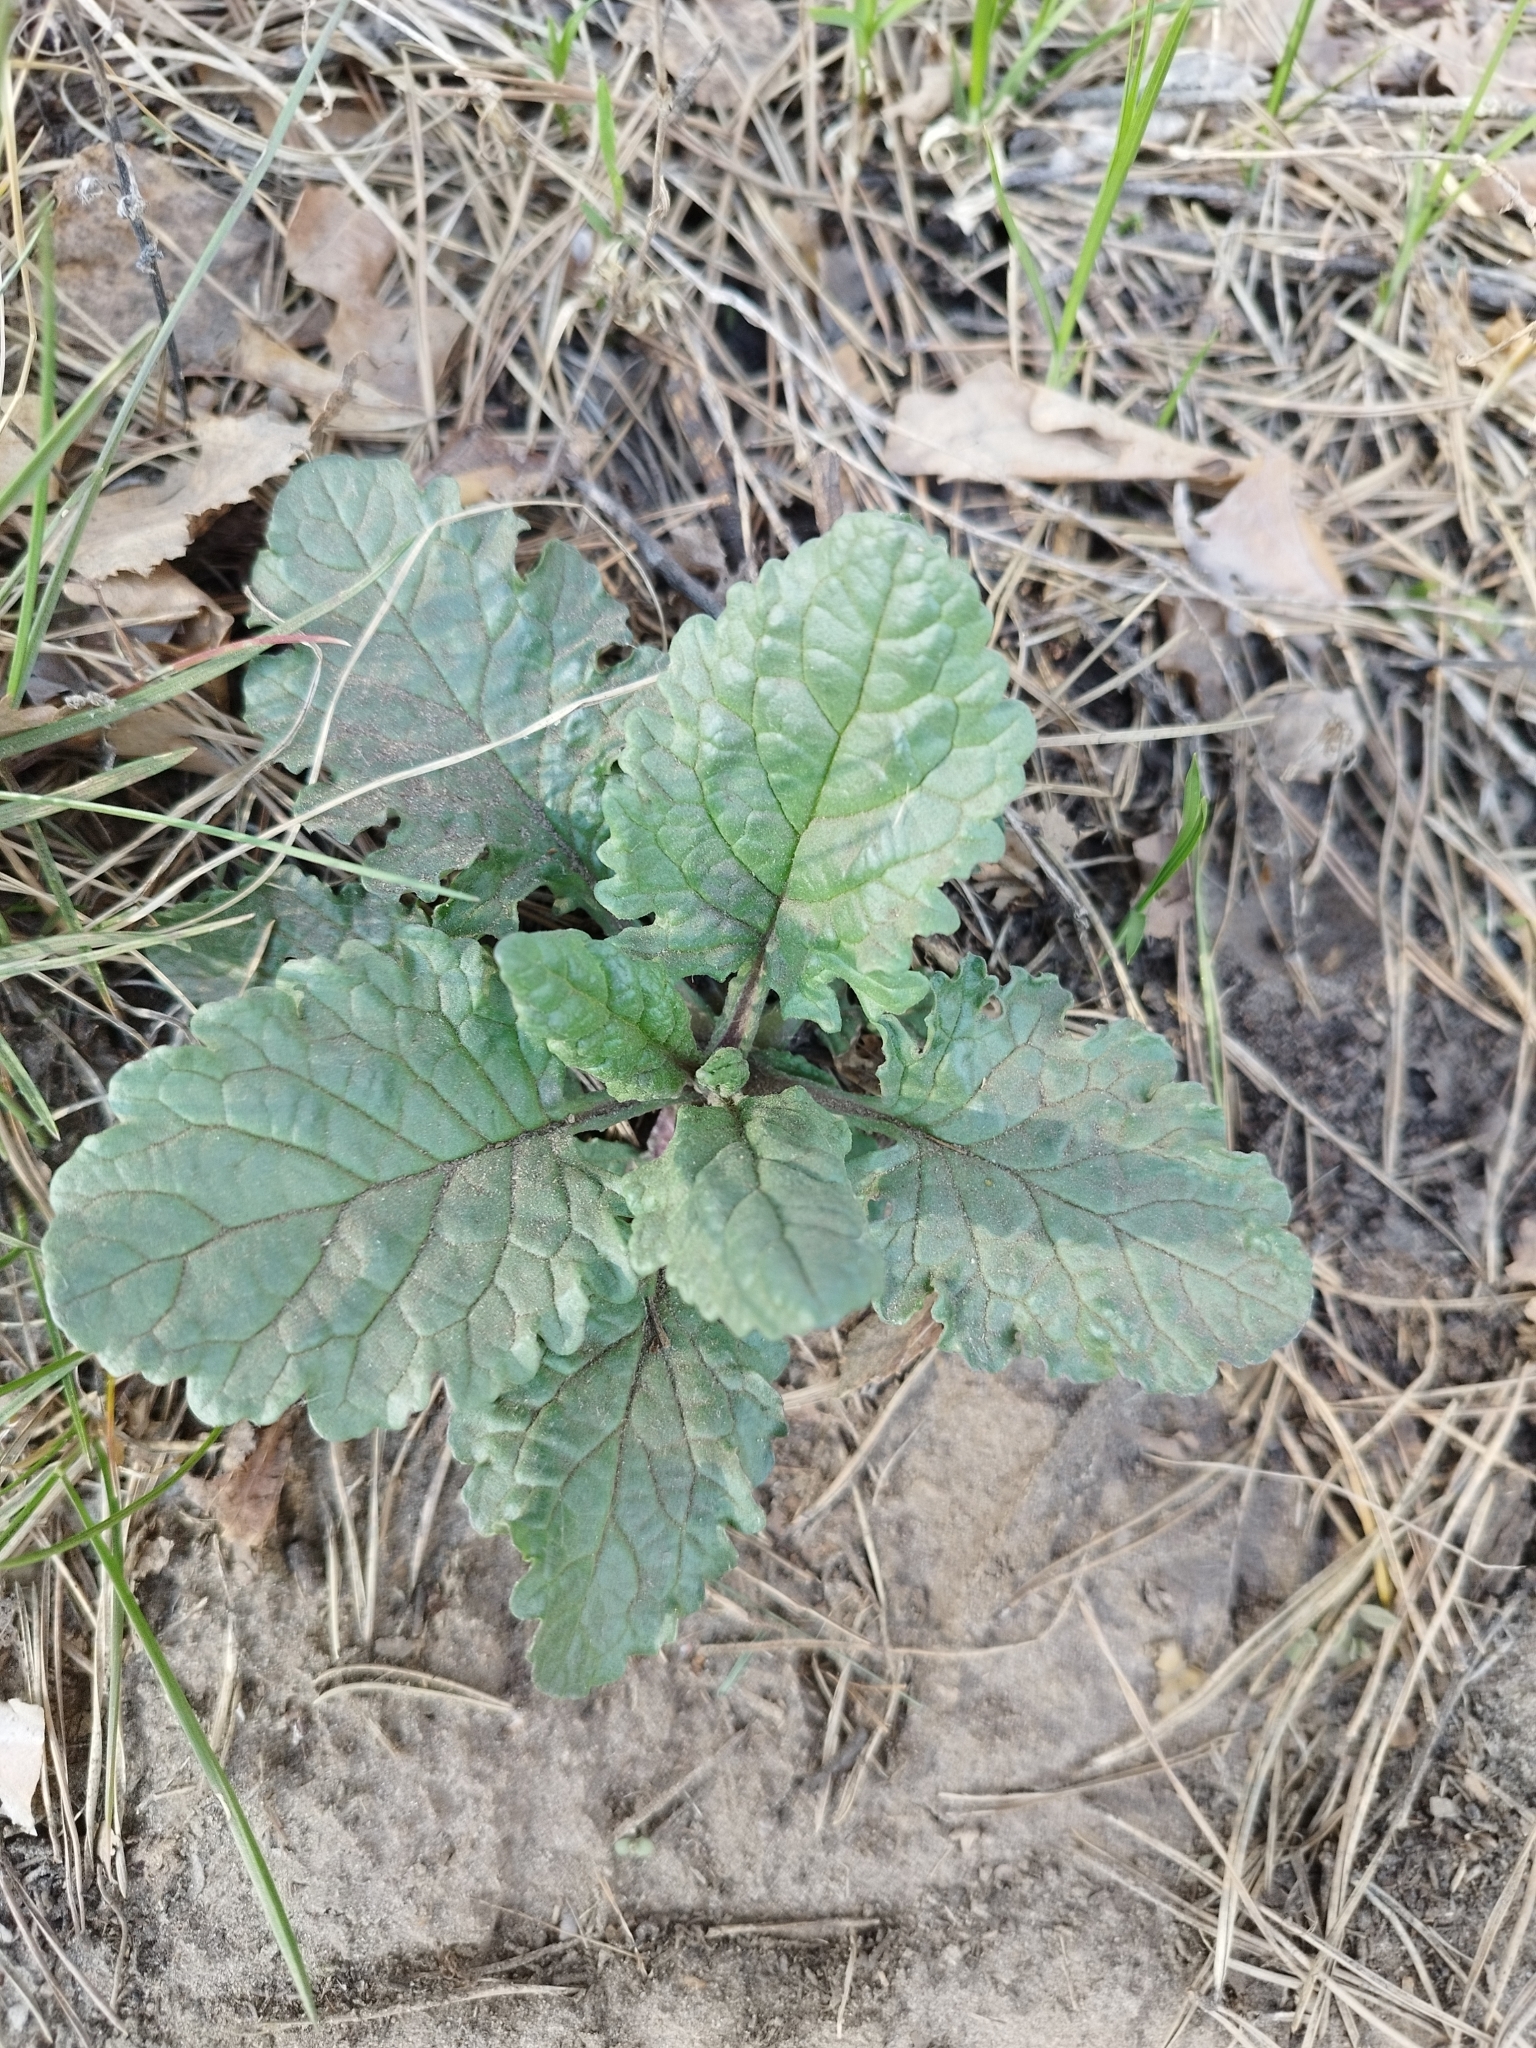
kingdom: Plantae
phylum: Tracheophyta
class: Magnoliopsida
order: Asterales
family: Asteraceae
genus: Jacobaea
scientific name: Jacobaea vulgaris
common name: Stinking willie
